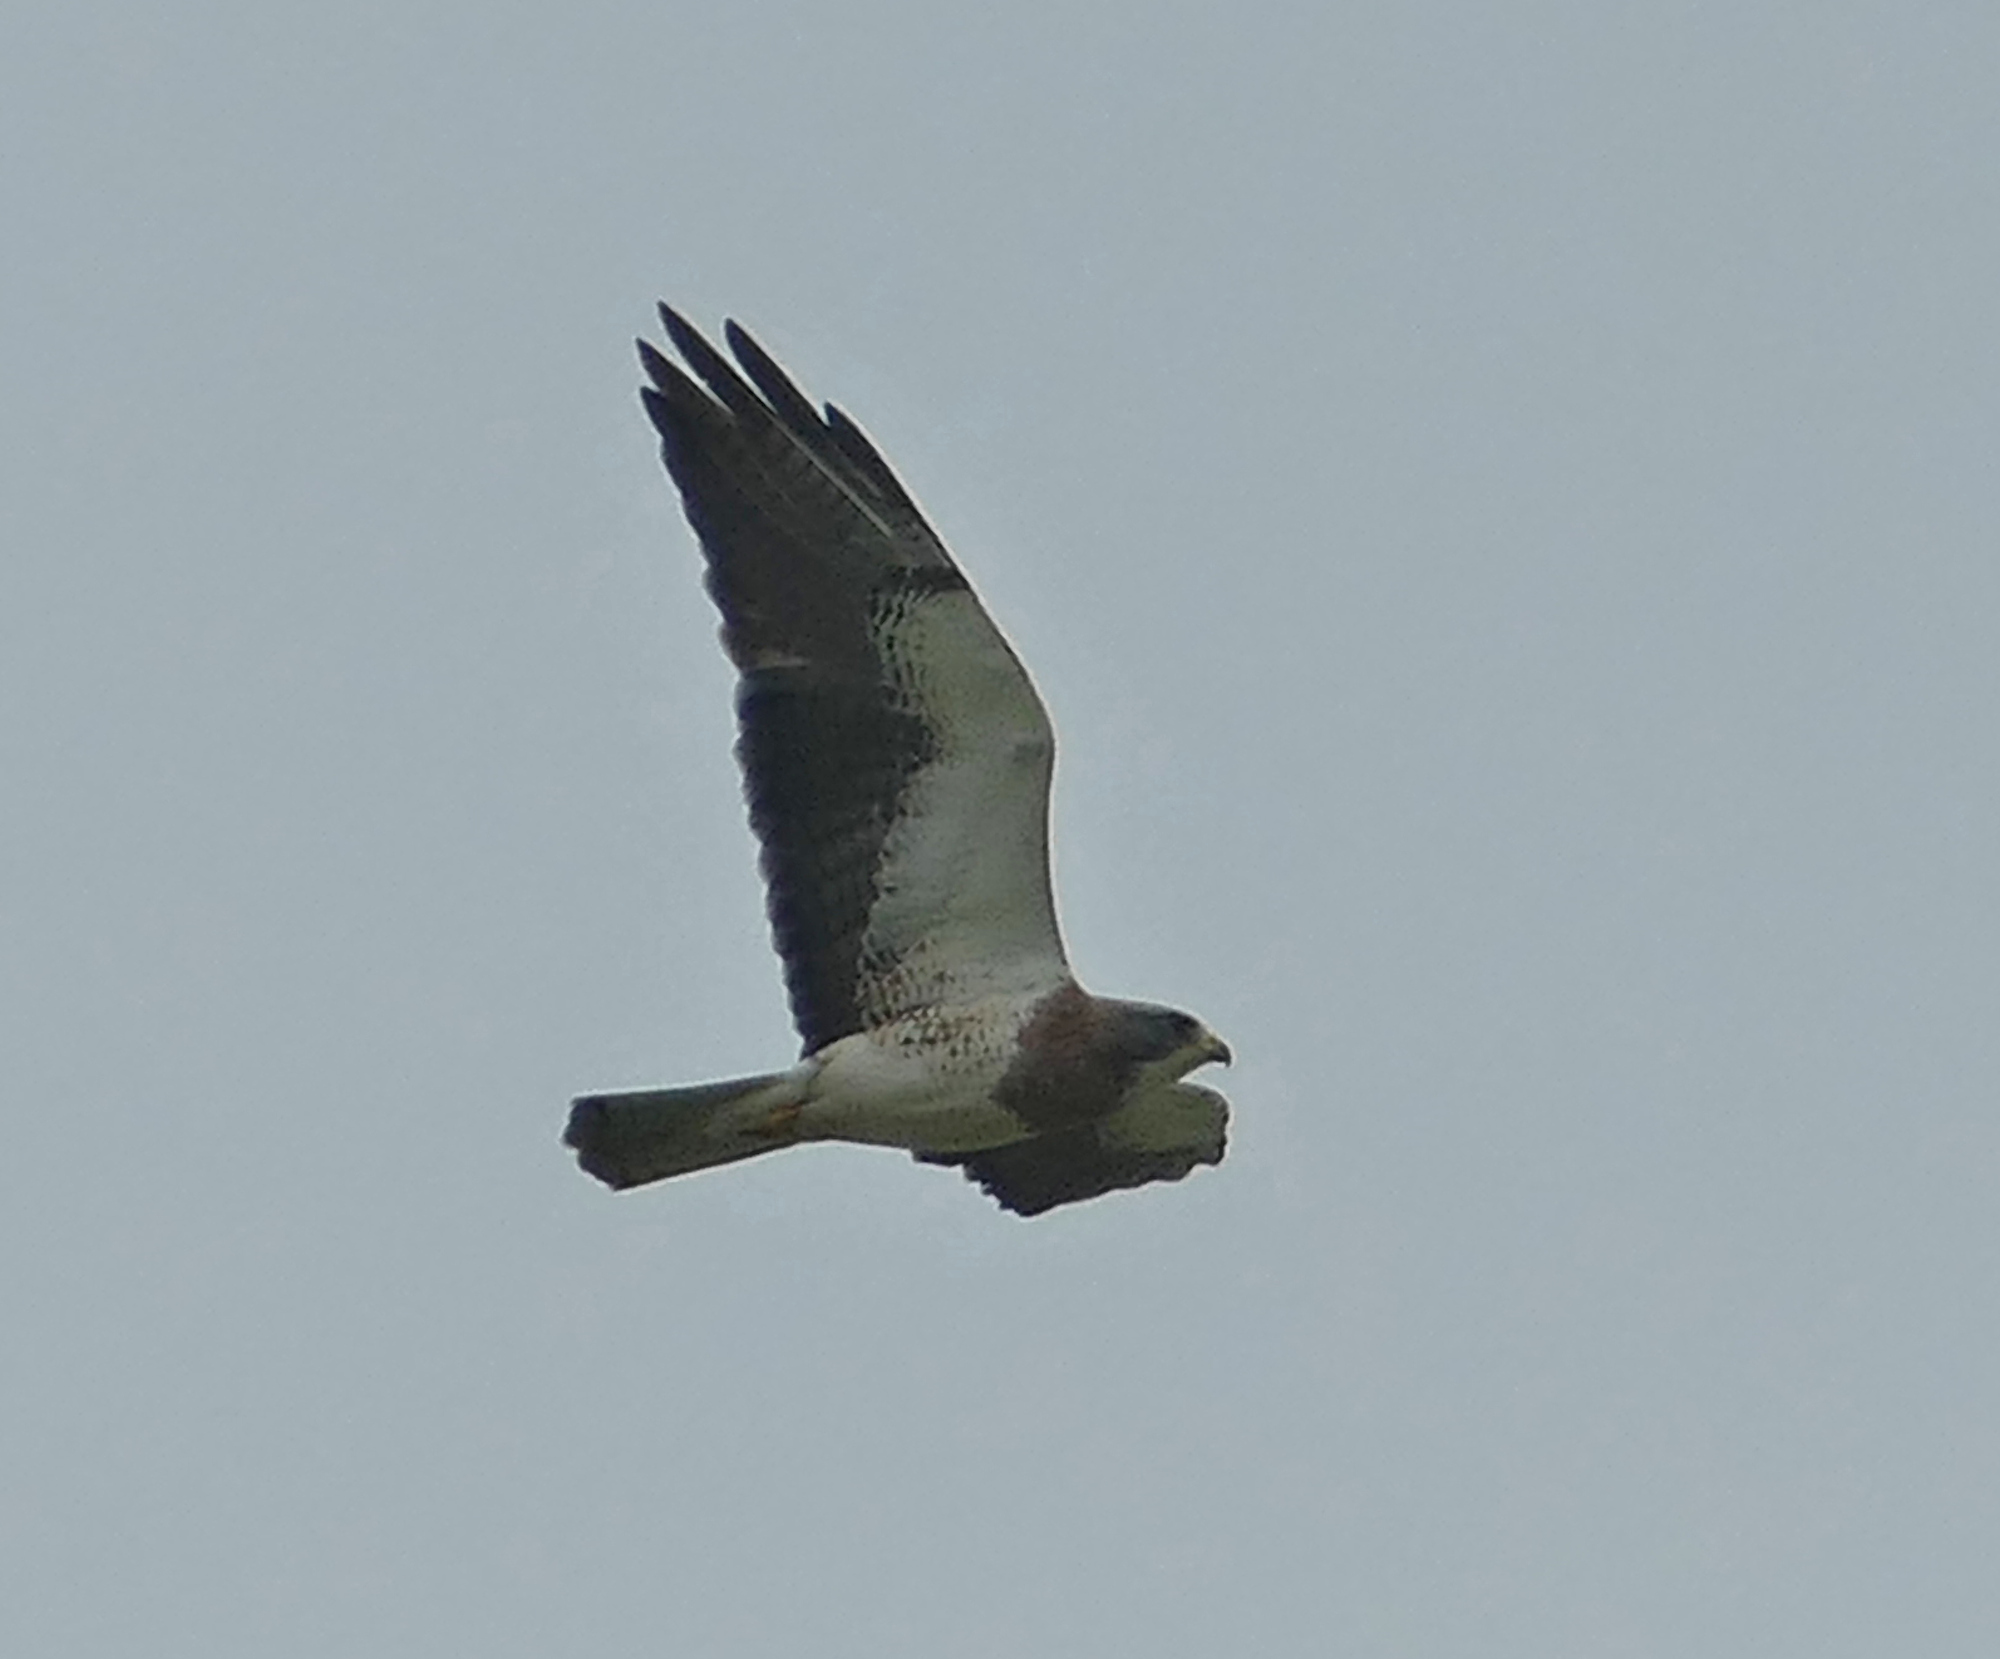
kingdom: Animalia
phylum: Chordata
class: Aves
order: Accipitriformes
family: Accipitridae
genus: Buteo
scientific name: Buteo swainsoni
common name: Swainson's hawk
